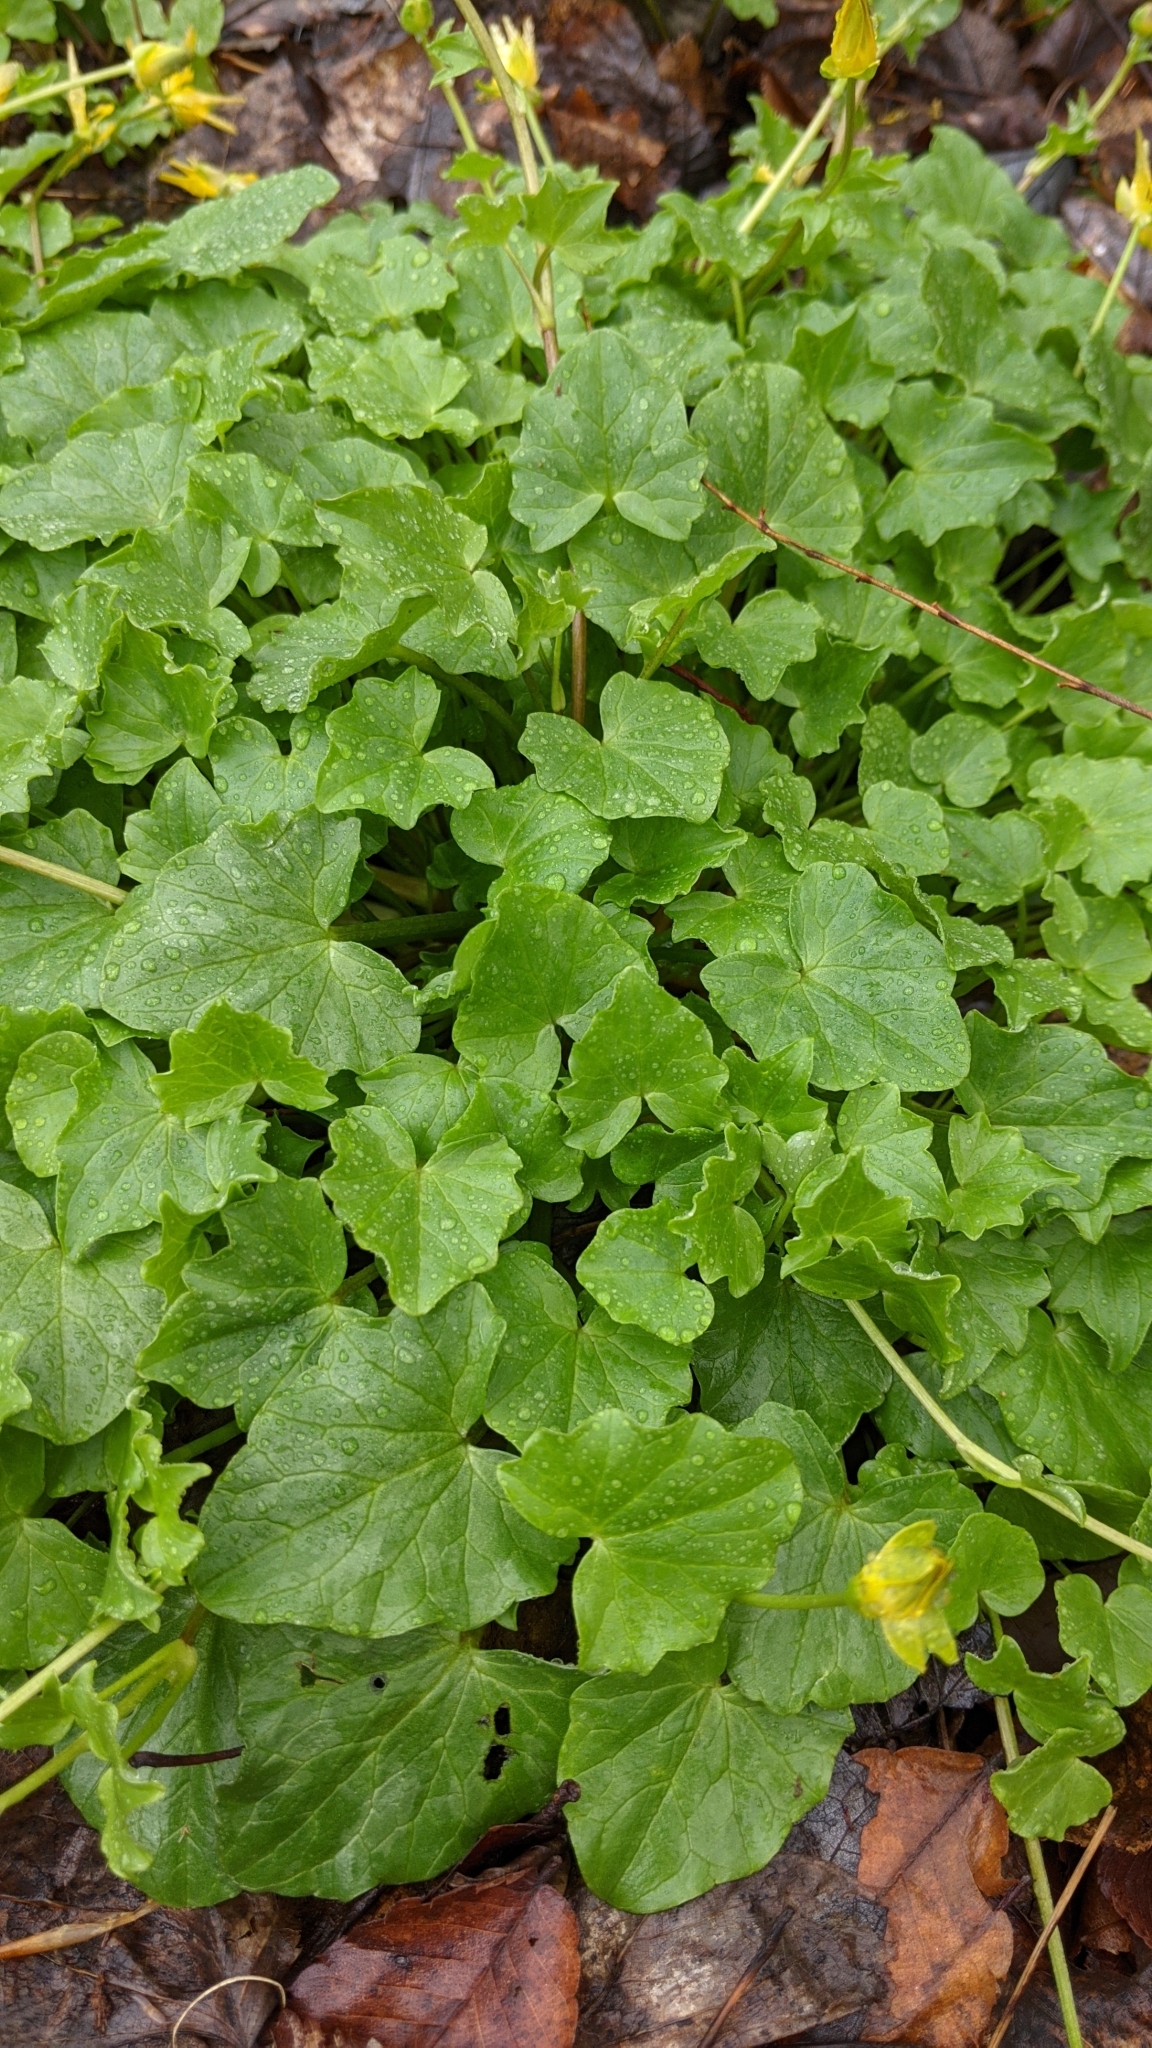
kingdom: Plantae
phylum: Tracheophyta
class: Magnoliopsida
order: Ranunculales
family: Ranunculaceae
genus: Ficaria
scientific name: Ficaria verna
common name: Lesser celandine
